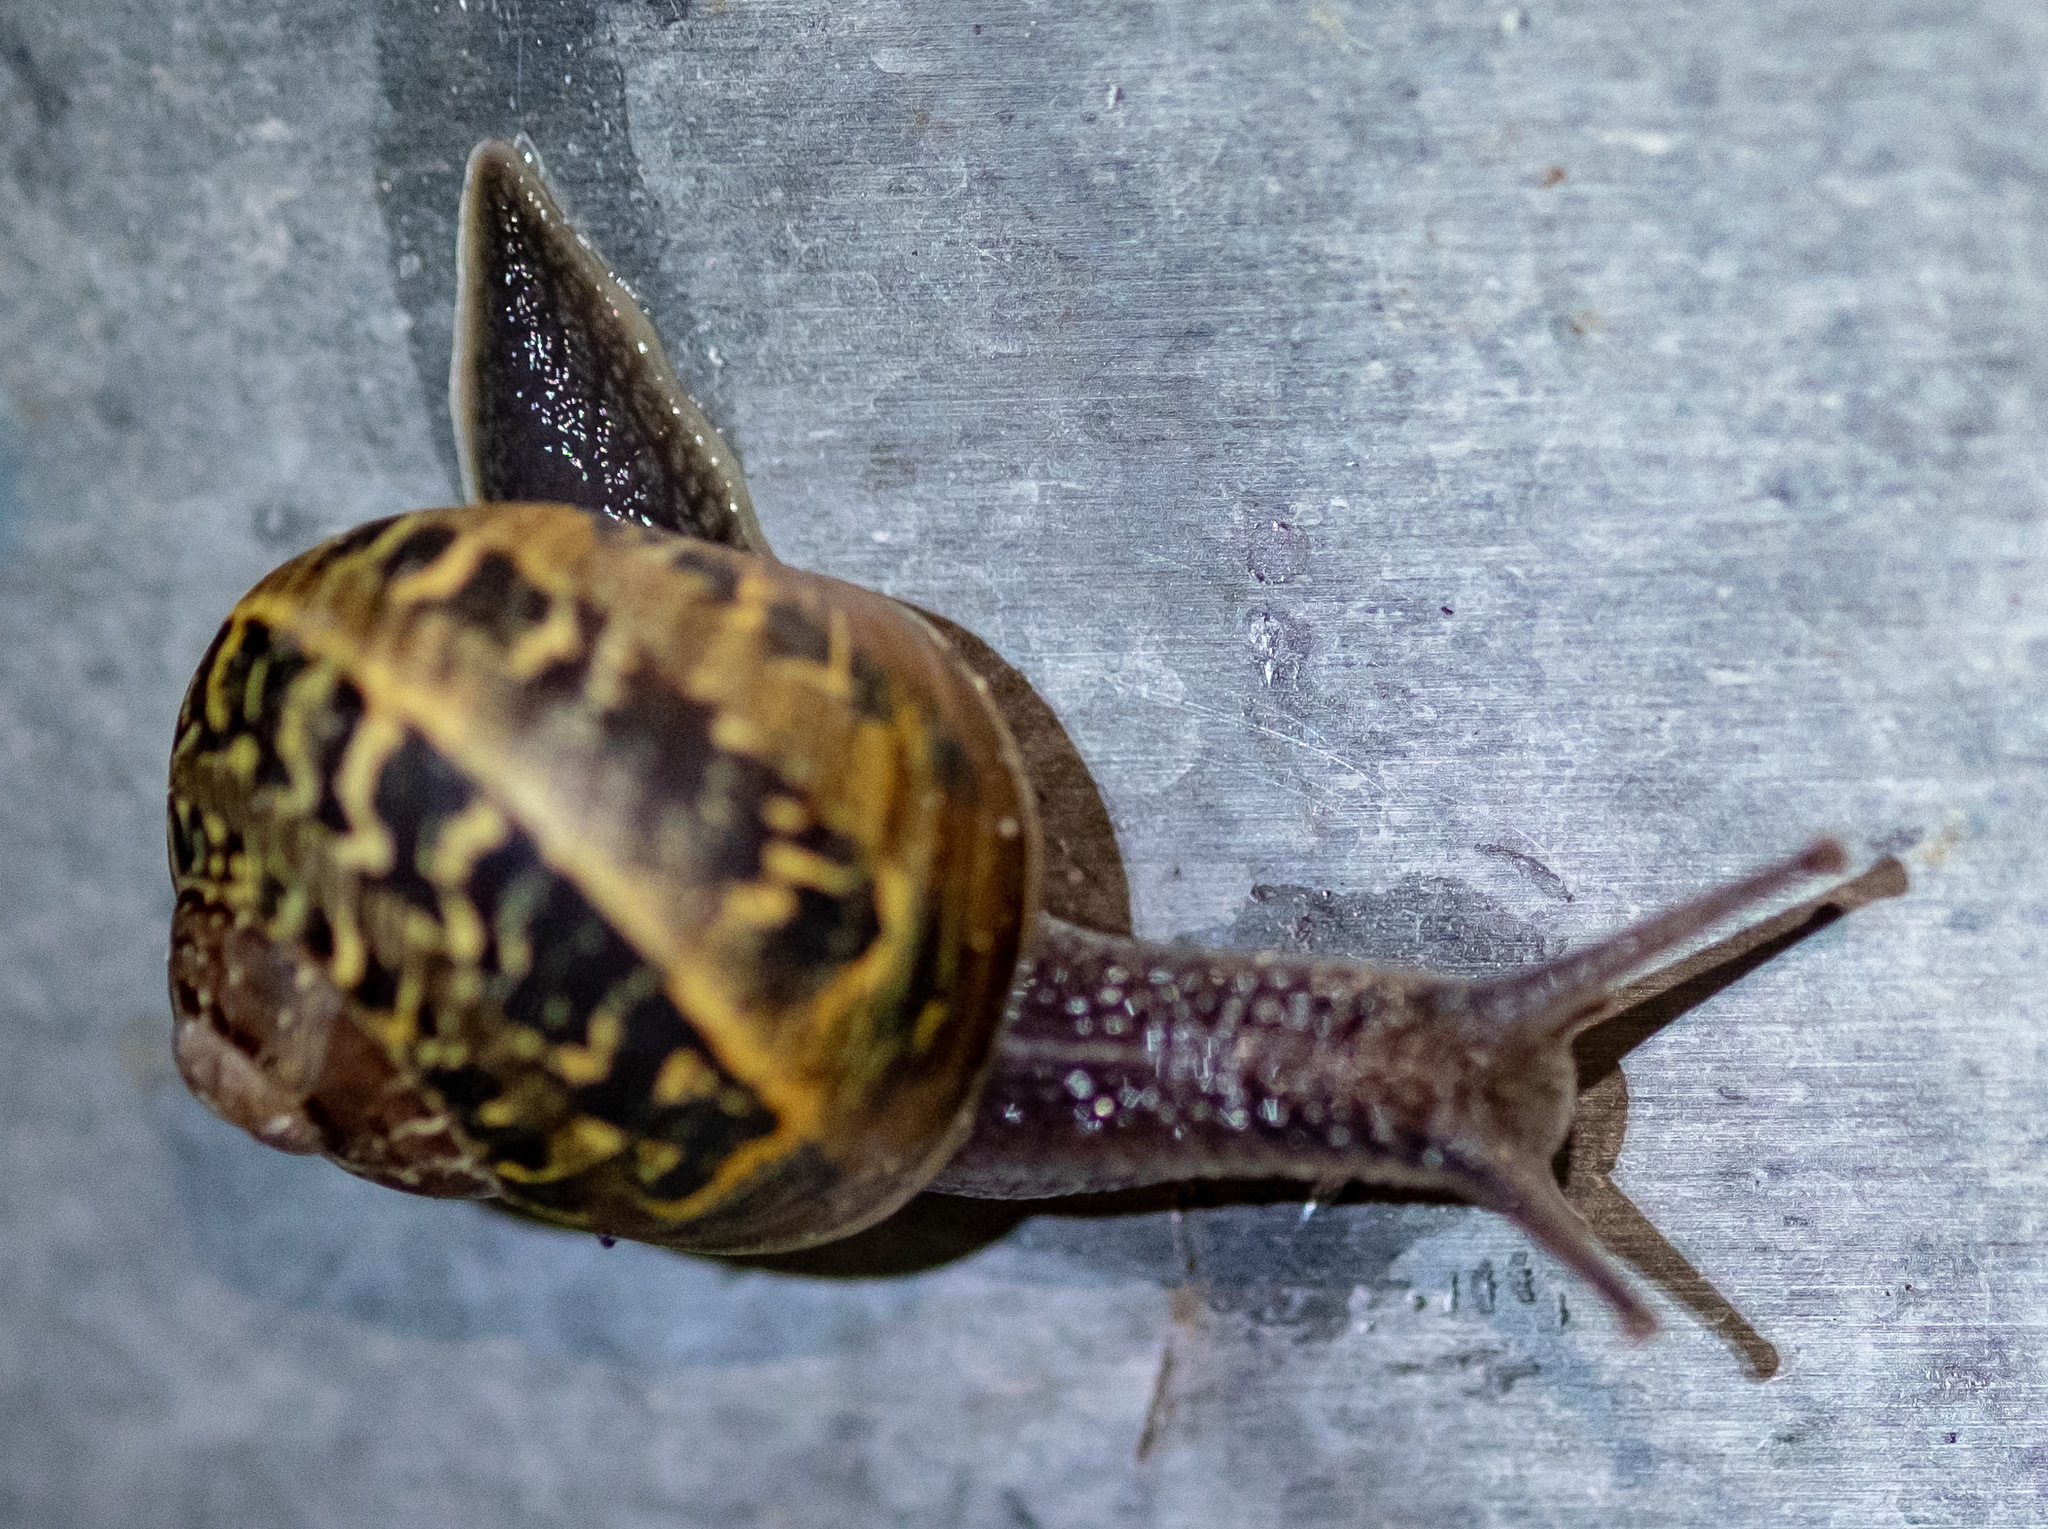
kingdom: Animalia
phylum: Mollusca
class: Gastropoda
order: Stylommatophora
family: Helicidae
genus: Cornu
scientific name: Cornu aspersum
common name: Brown garden snail
